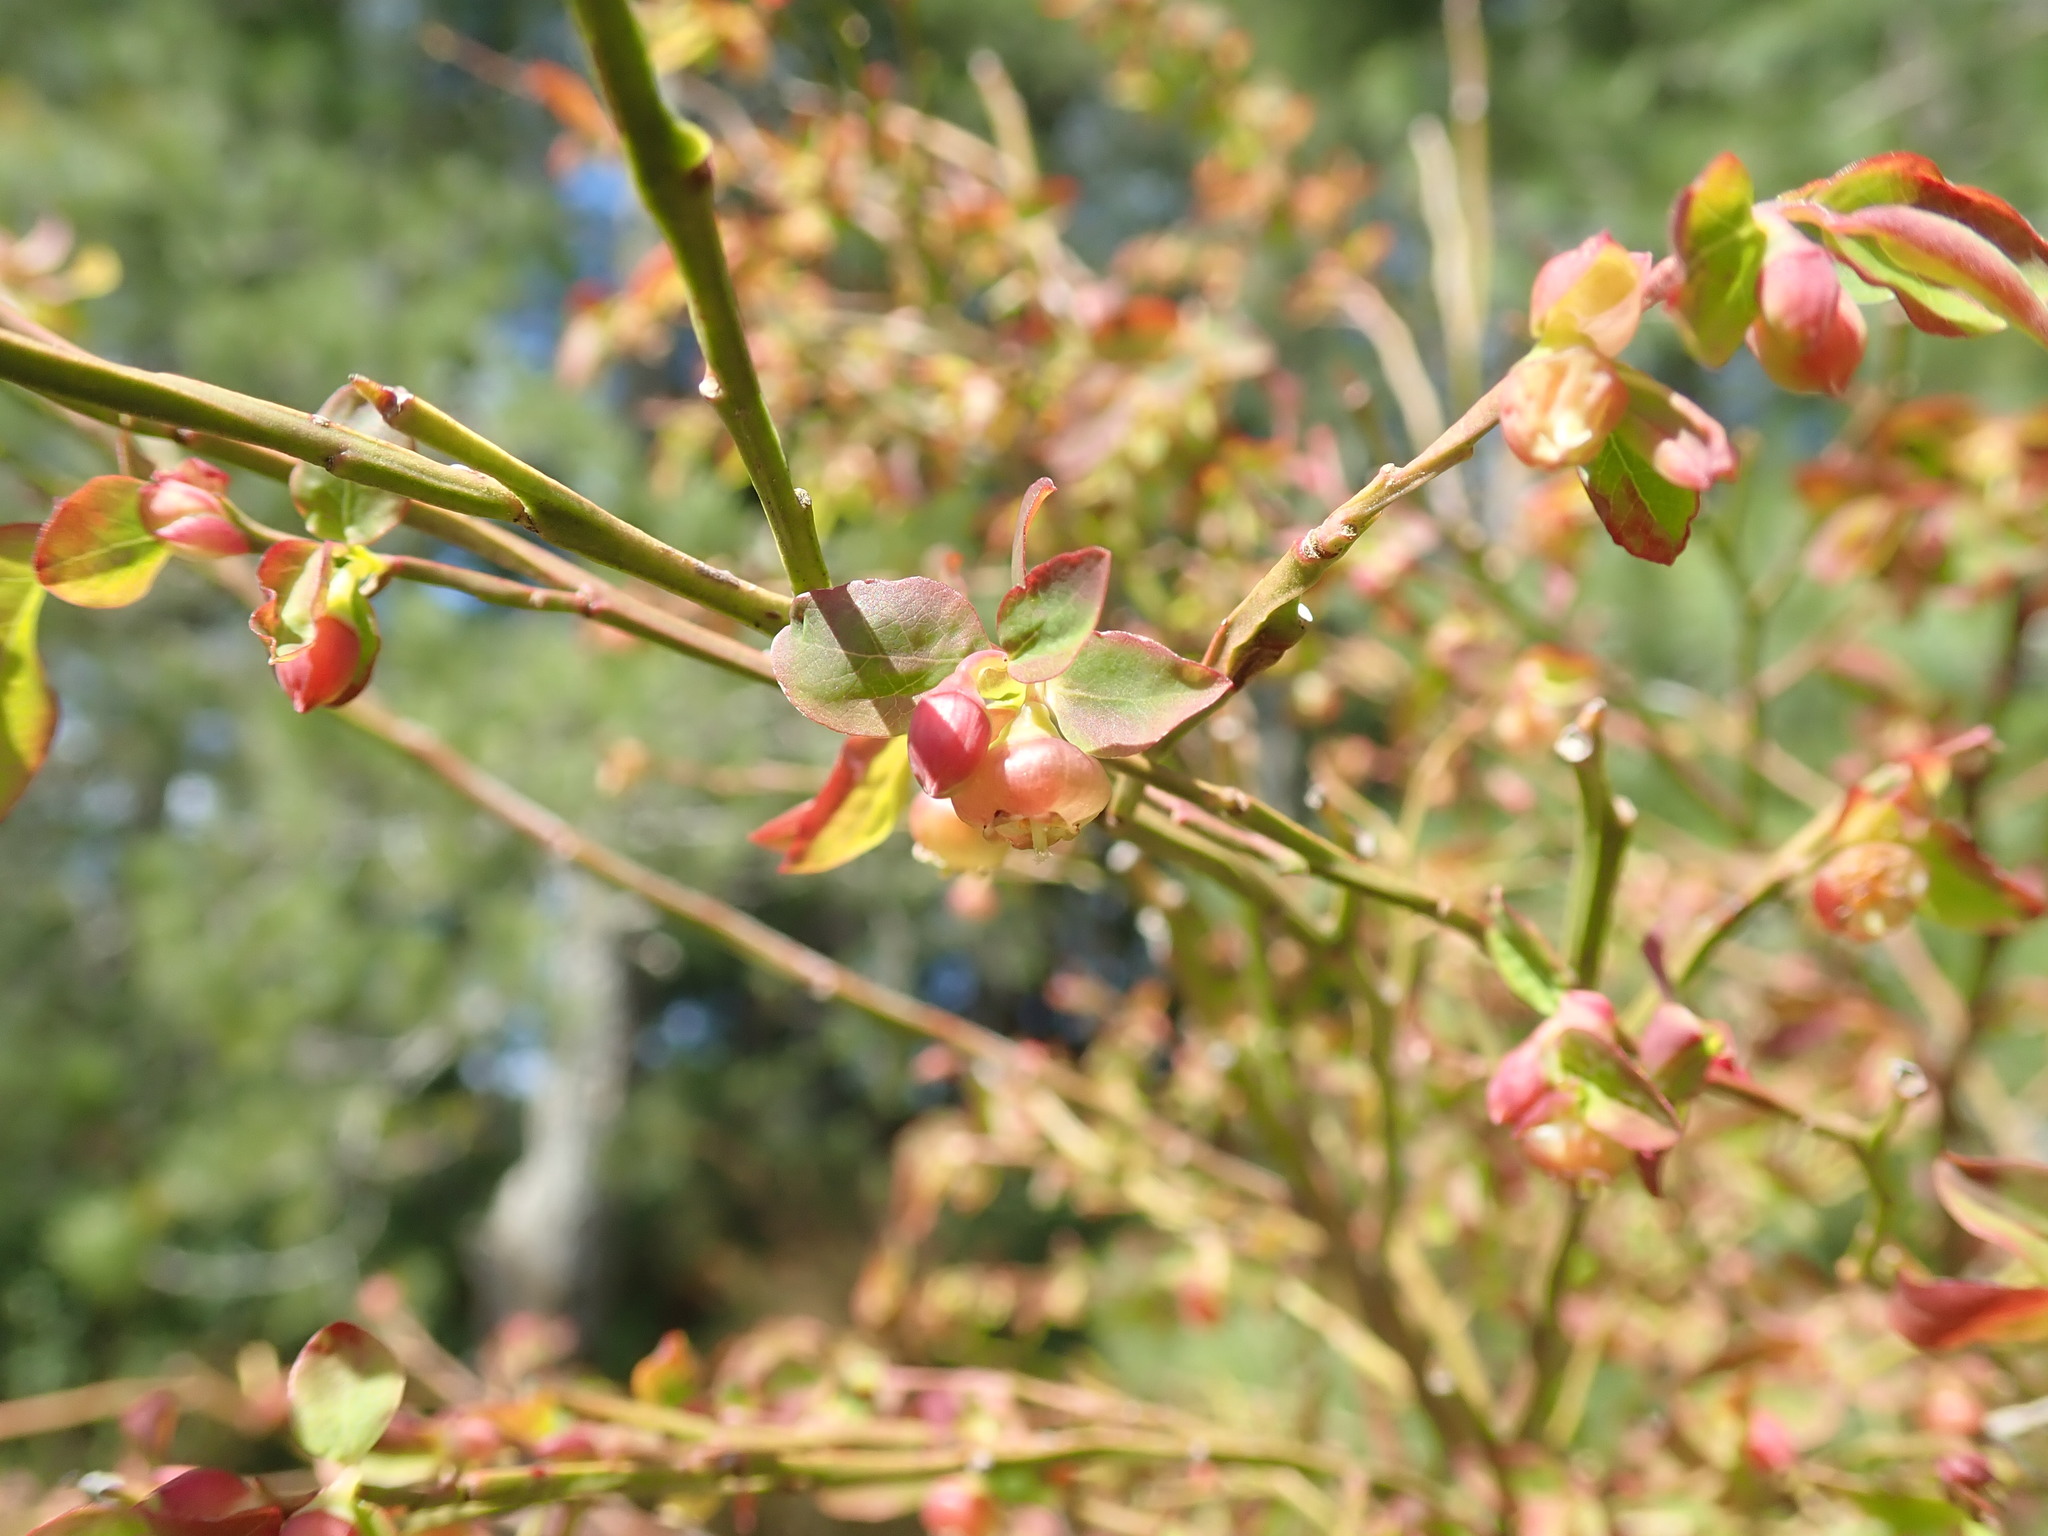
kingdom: Plantae
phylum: Tracheophyta
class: Magnoliopsida
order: Ericales
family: Ericaceae
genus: Vaccinium
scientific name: Vaccinium parvifolium
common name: Red-huckleberry
